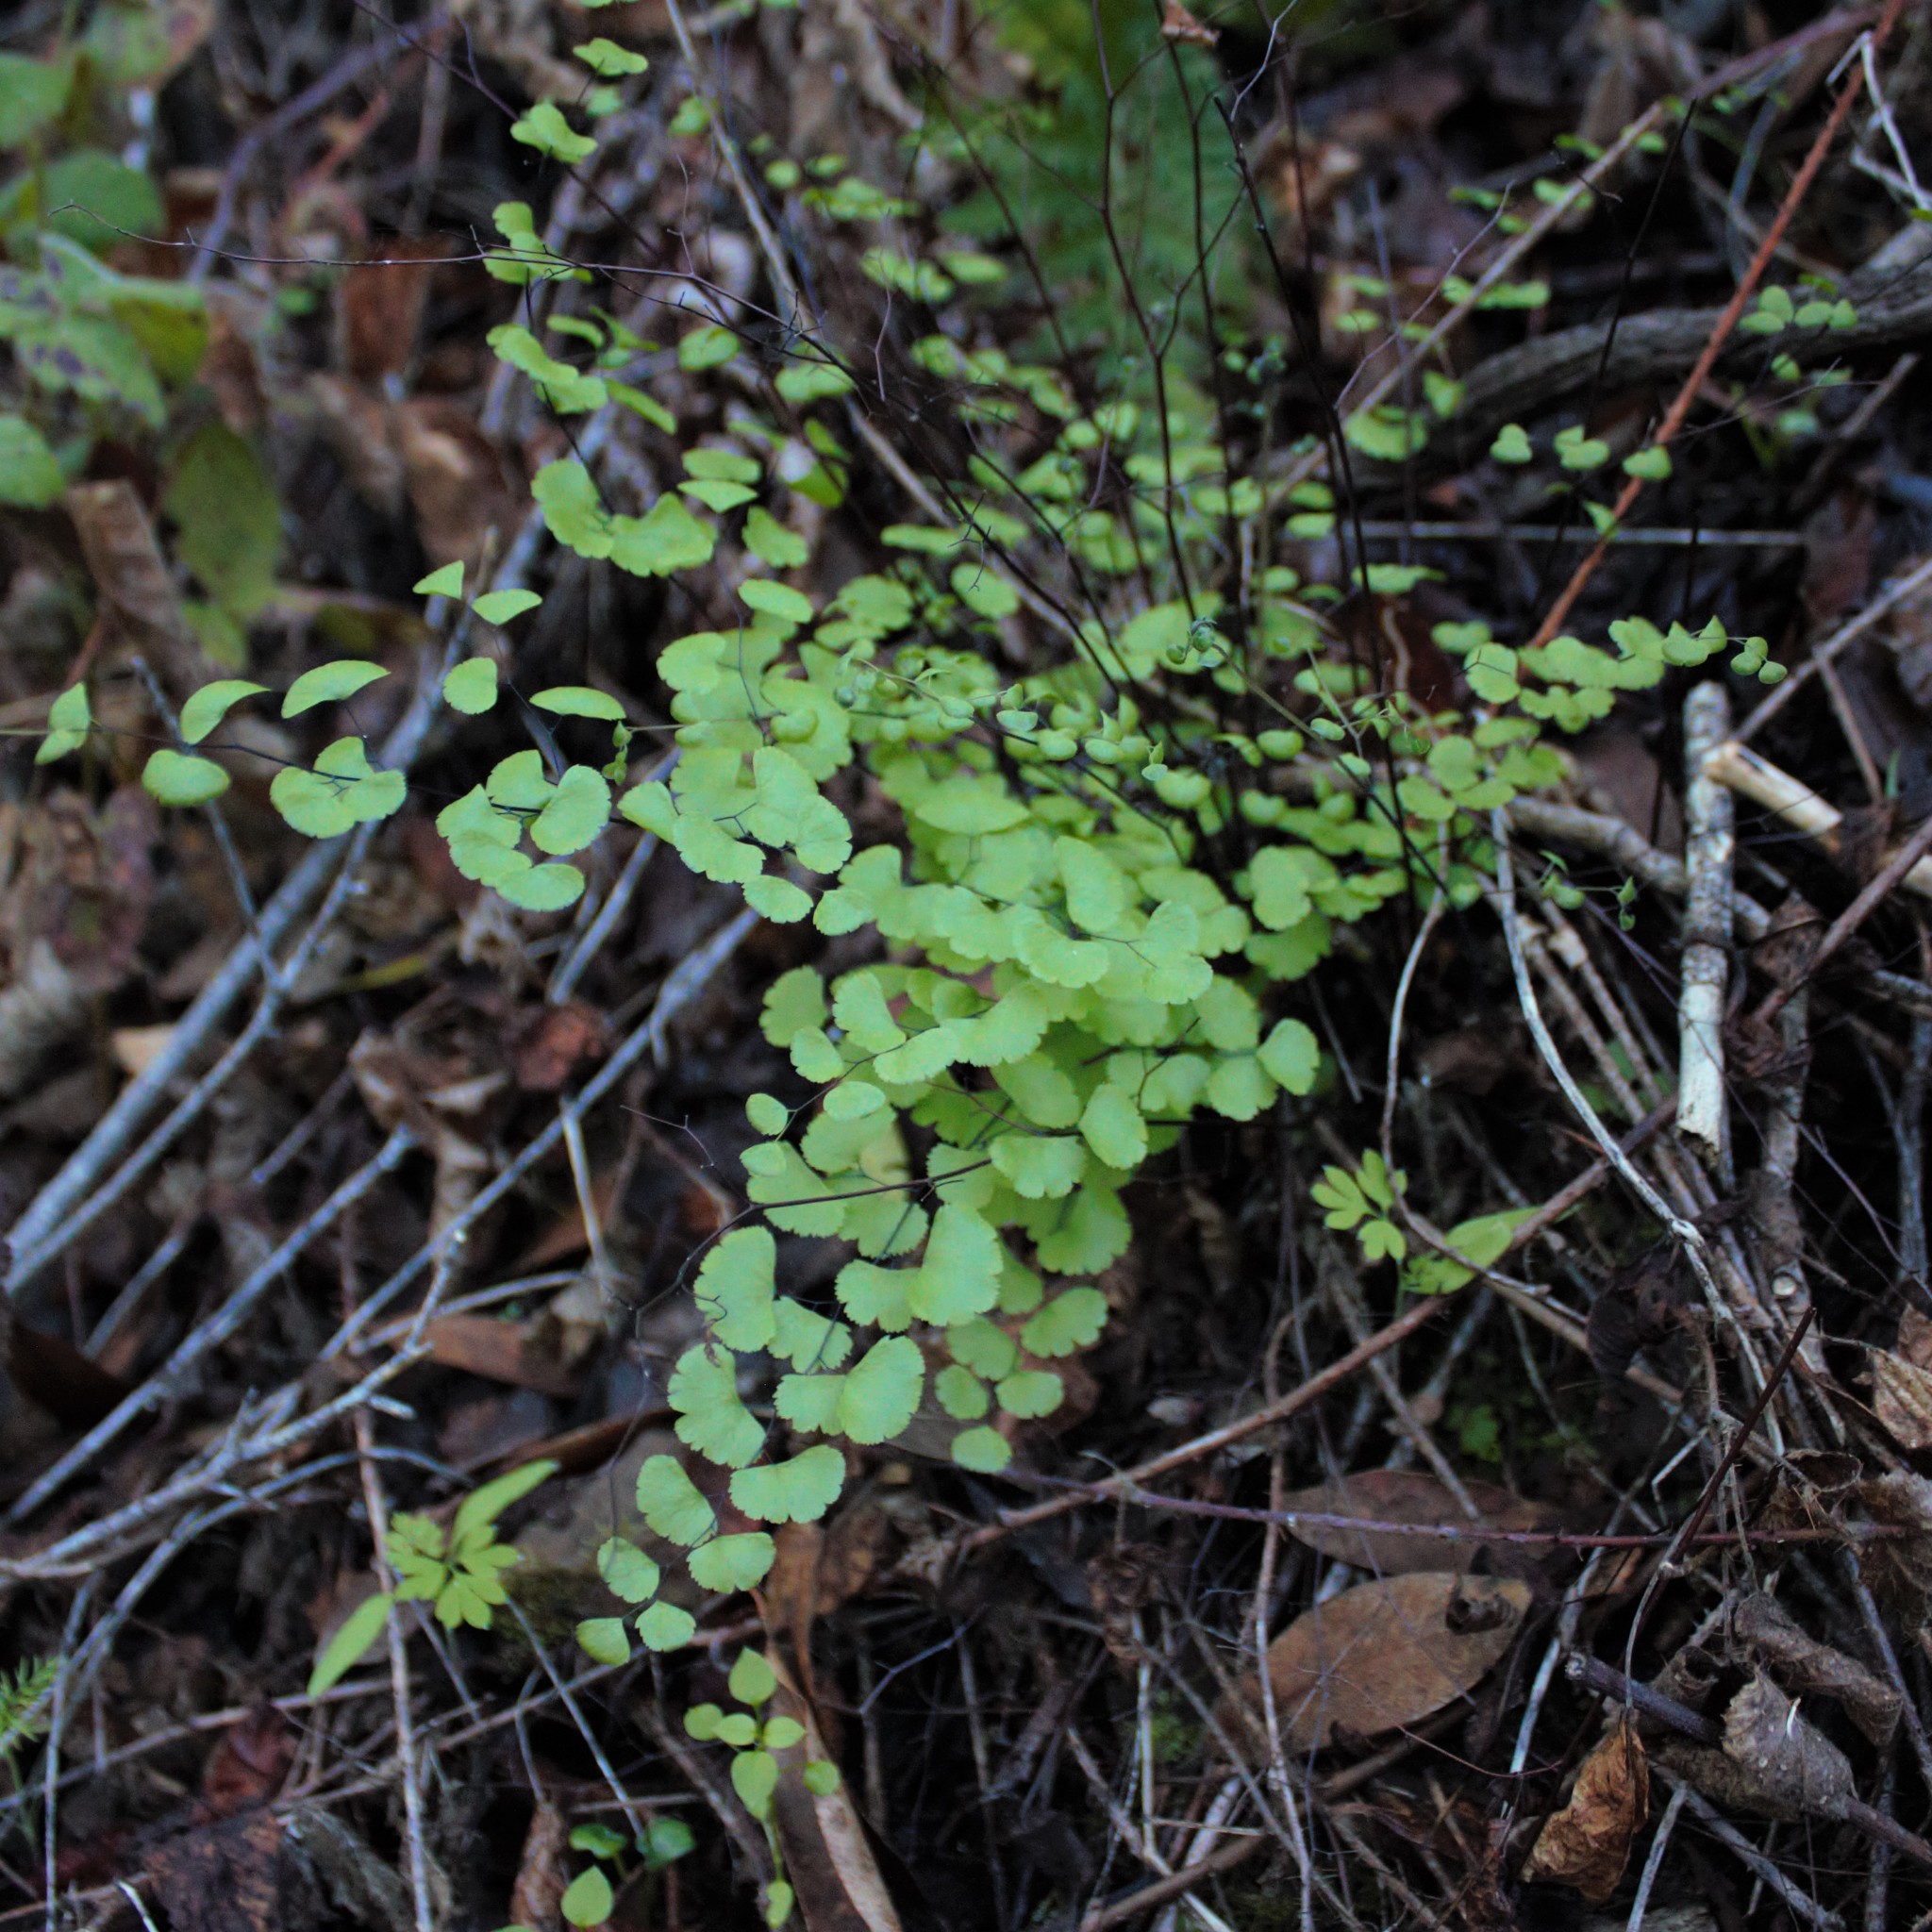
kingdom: Plantae
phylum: Tracheophyta
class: Polypodiopsida
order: Polypodiales
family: Pteridaceae
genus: Adiantum
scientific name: Adiantum jordanii
